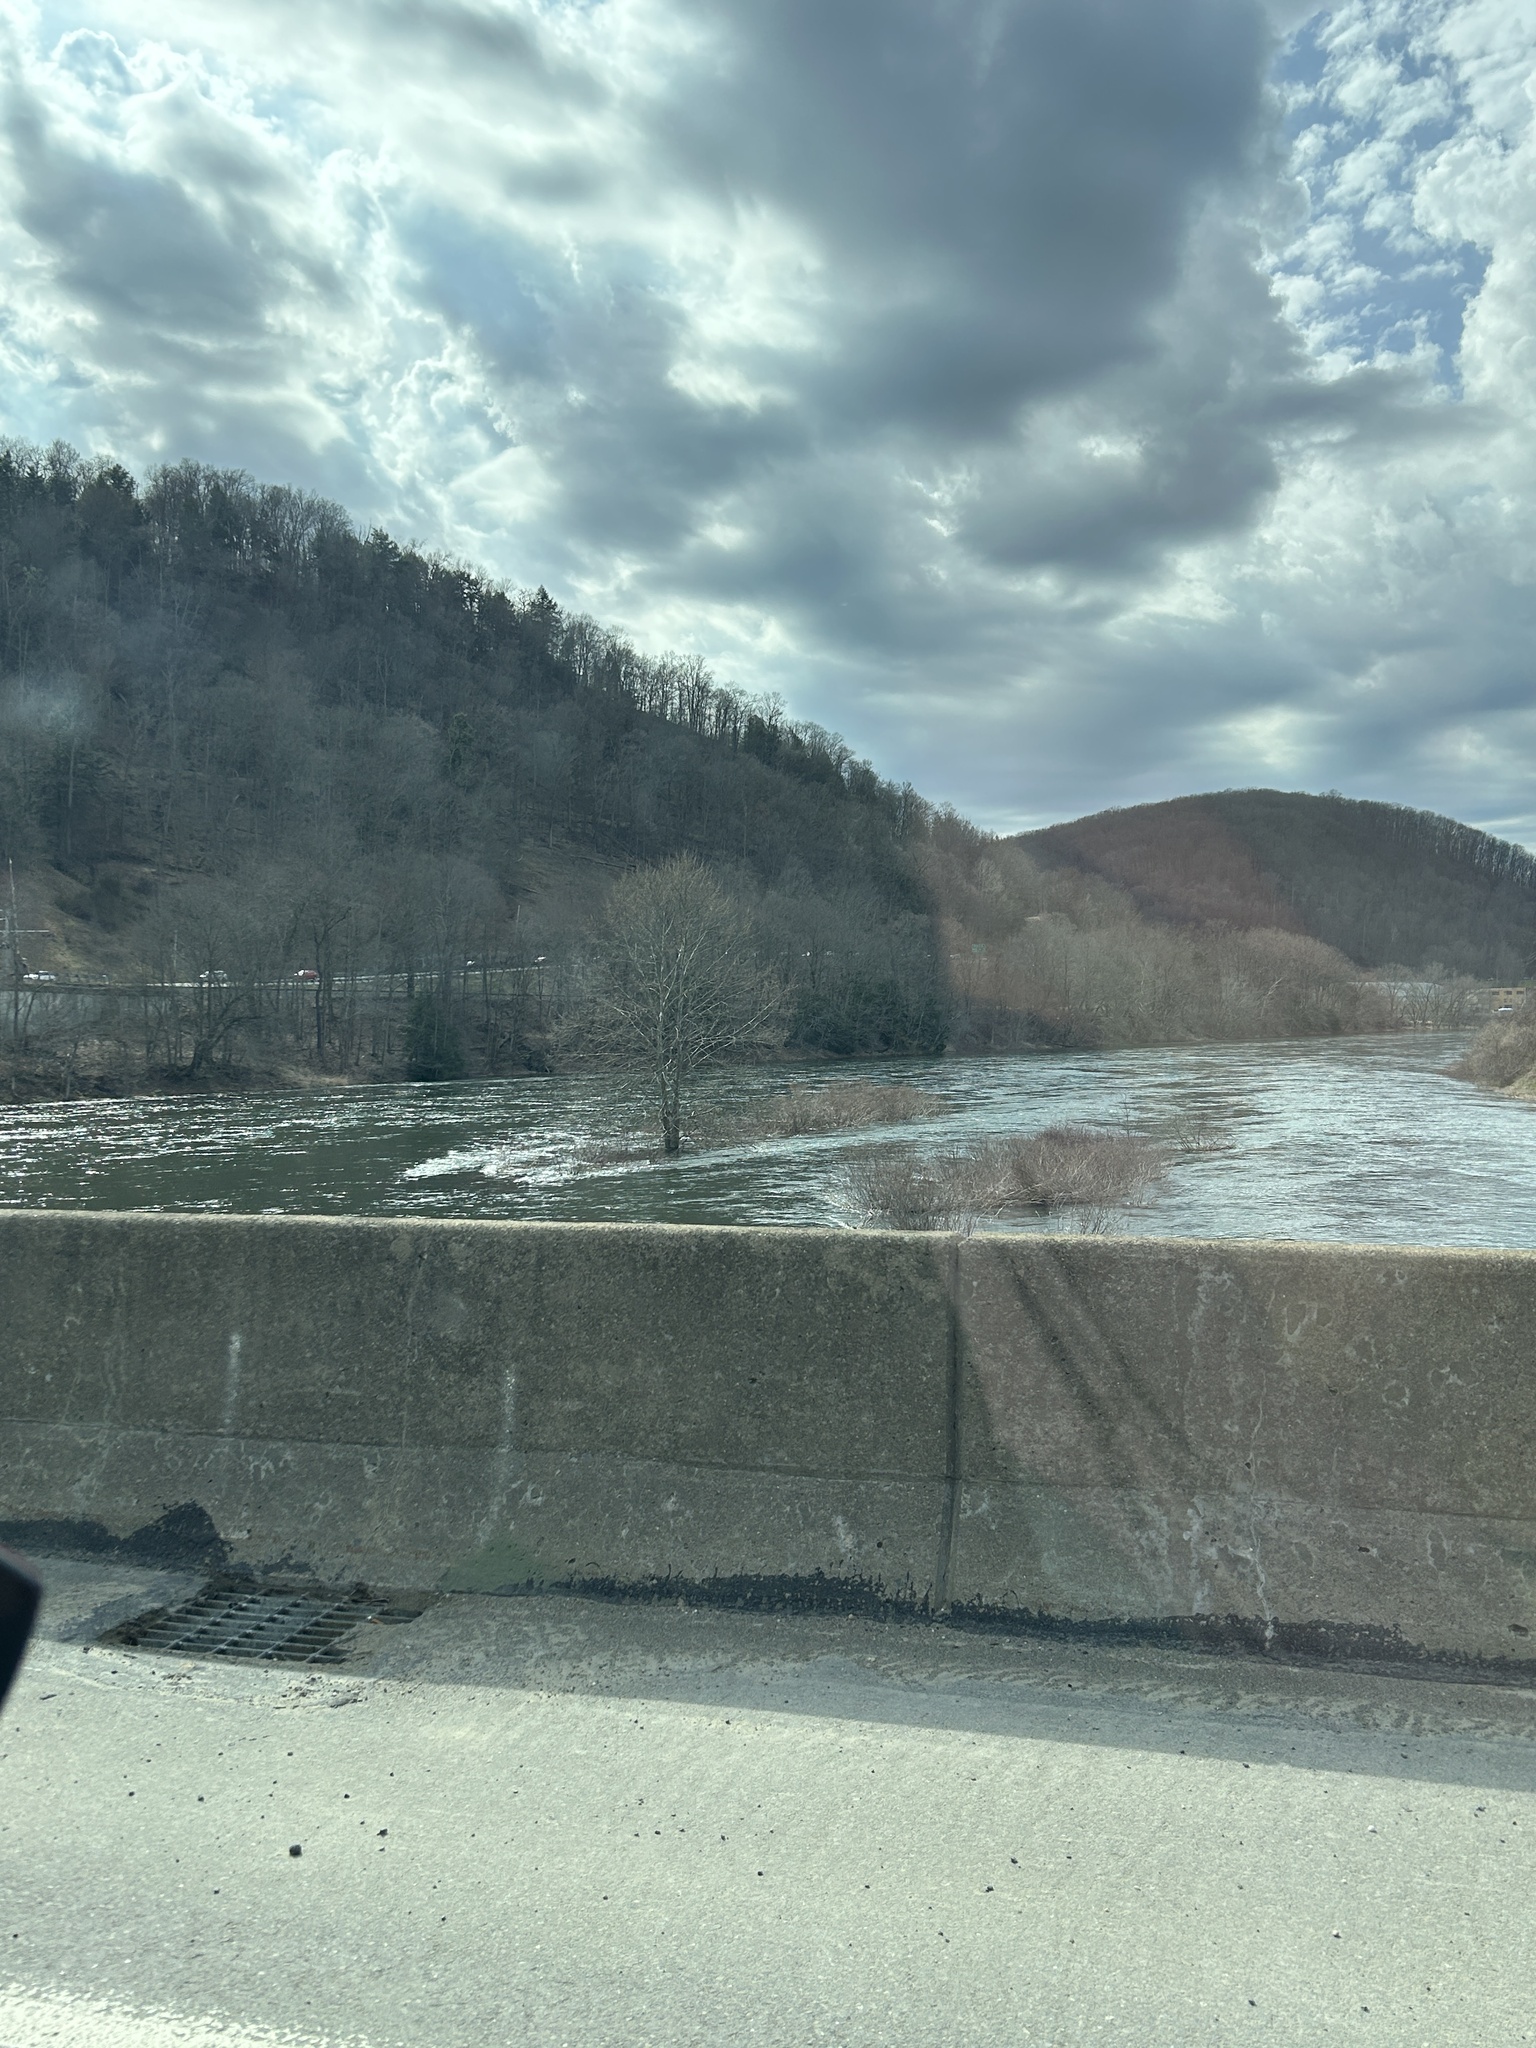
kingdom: Plantae
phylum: Tracheophyta
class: Magnoliopsida
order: Proteales
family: Platanaceae
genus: Platanus
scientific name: Platanus occidentalis
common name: American sycamore
